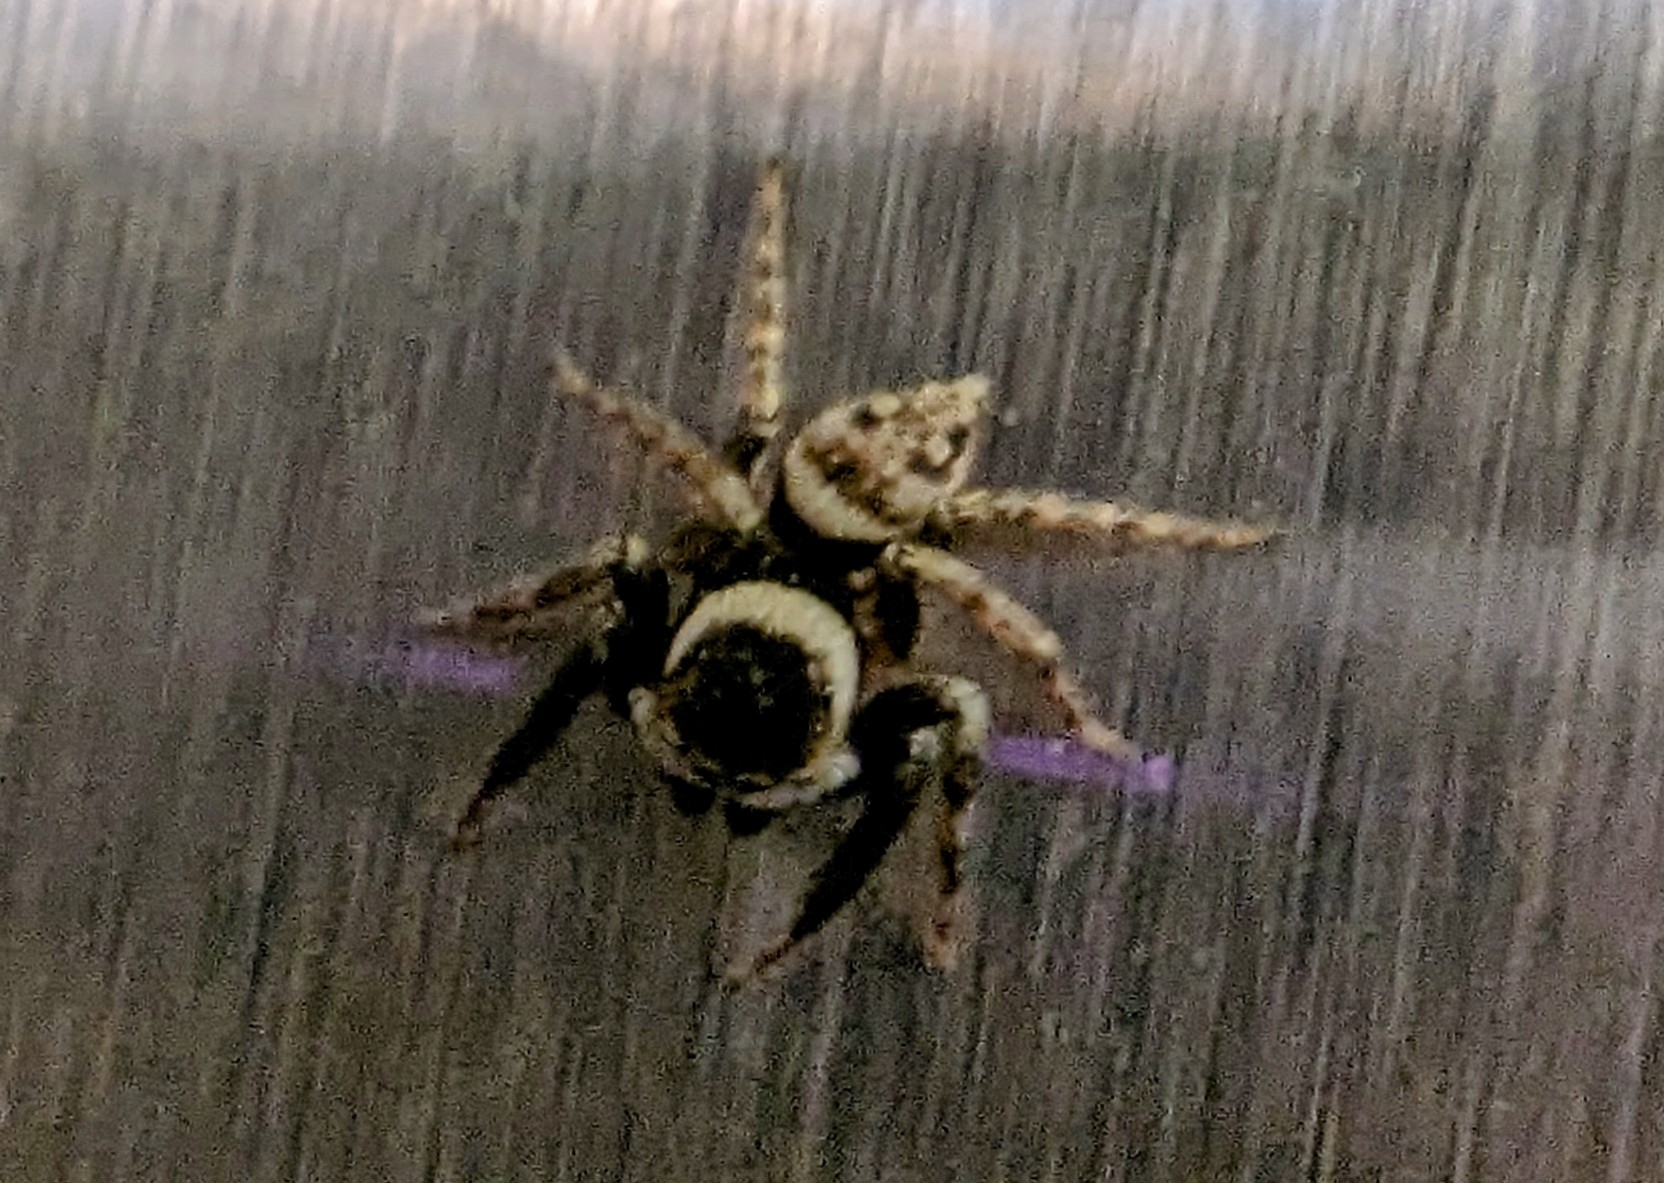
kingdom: Animalia
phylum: Arthropoda
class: Arachnida
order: Araneae
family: Salticidae
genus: Hasarius
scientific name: Hasarius adansoni
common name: Jumping spider
